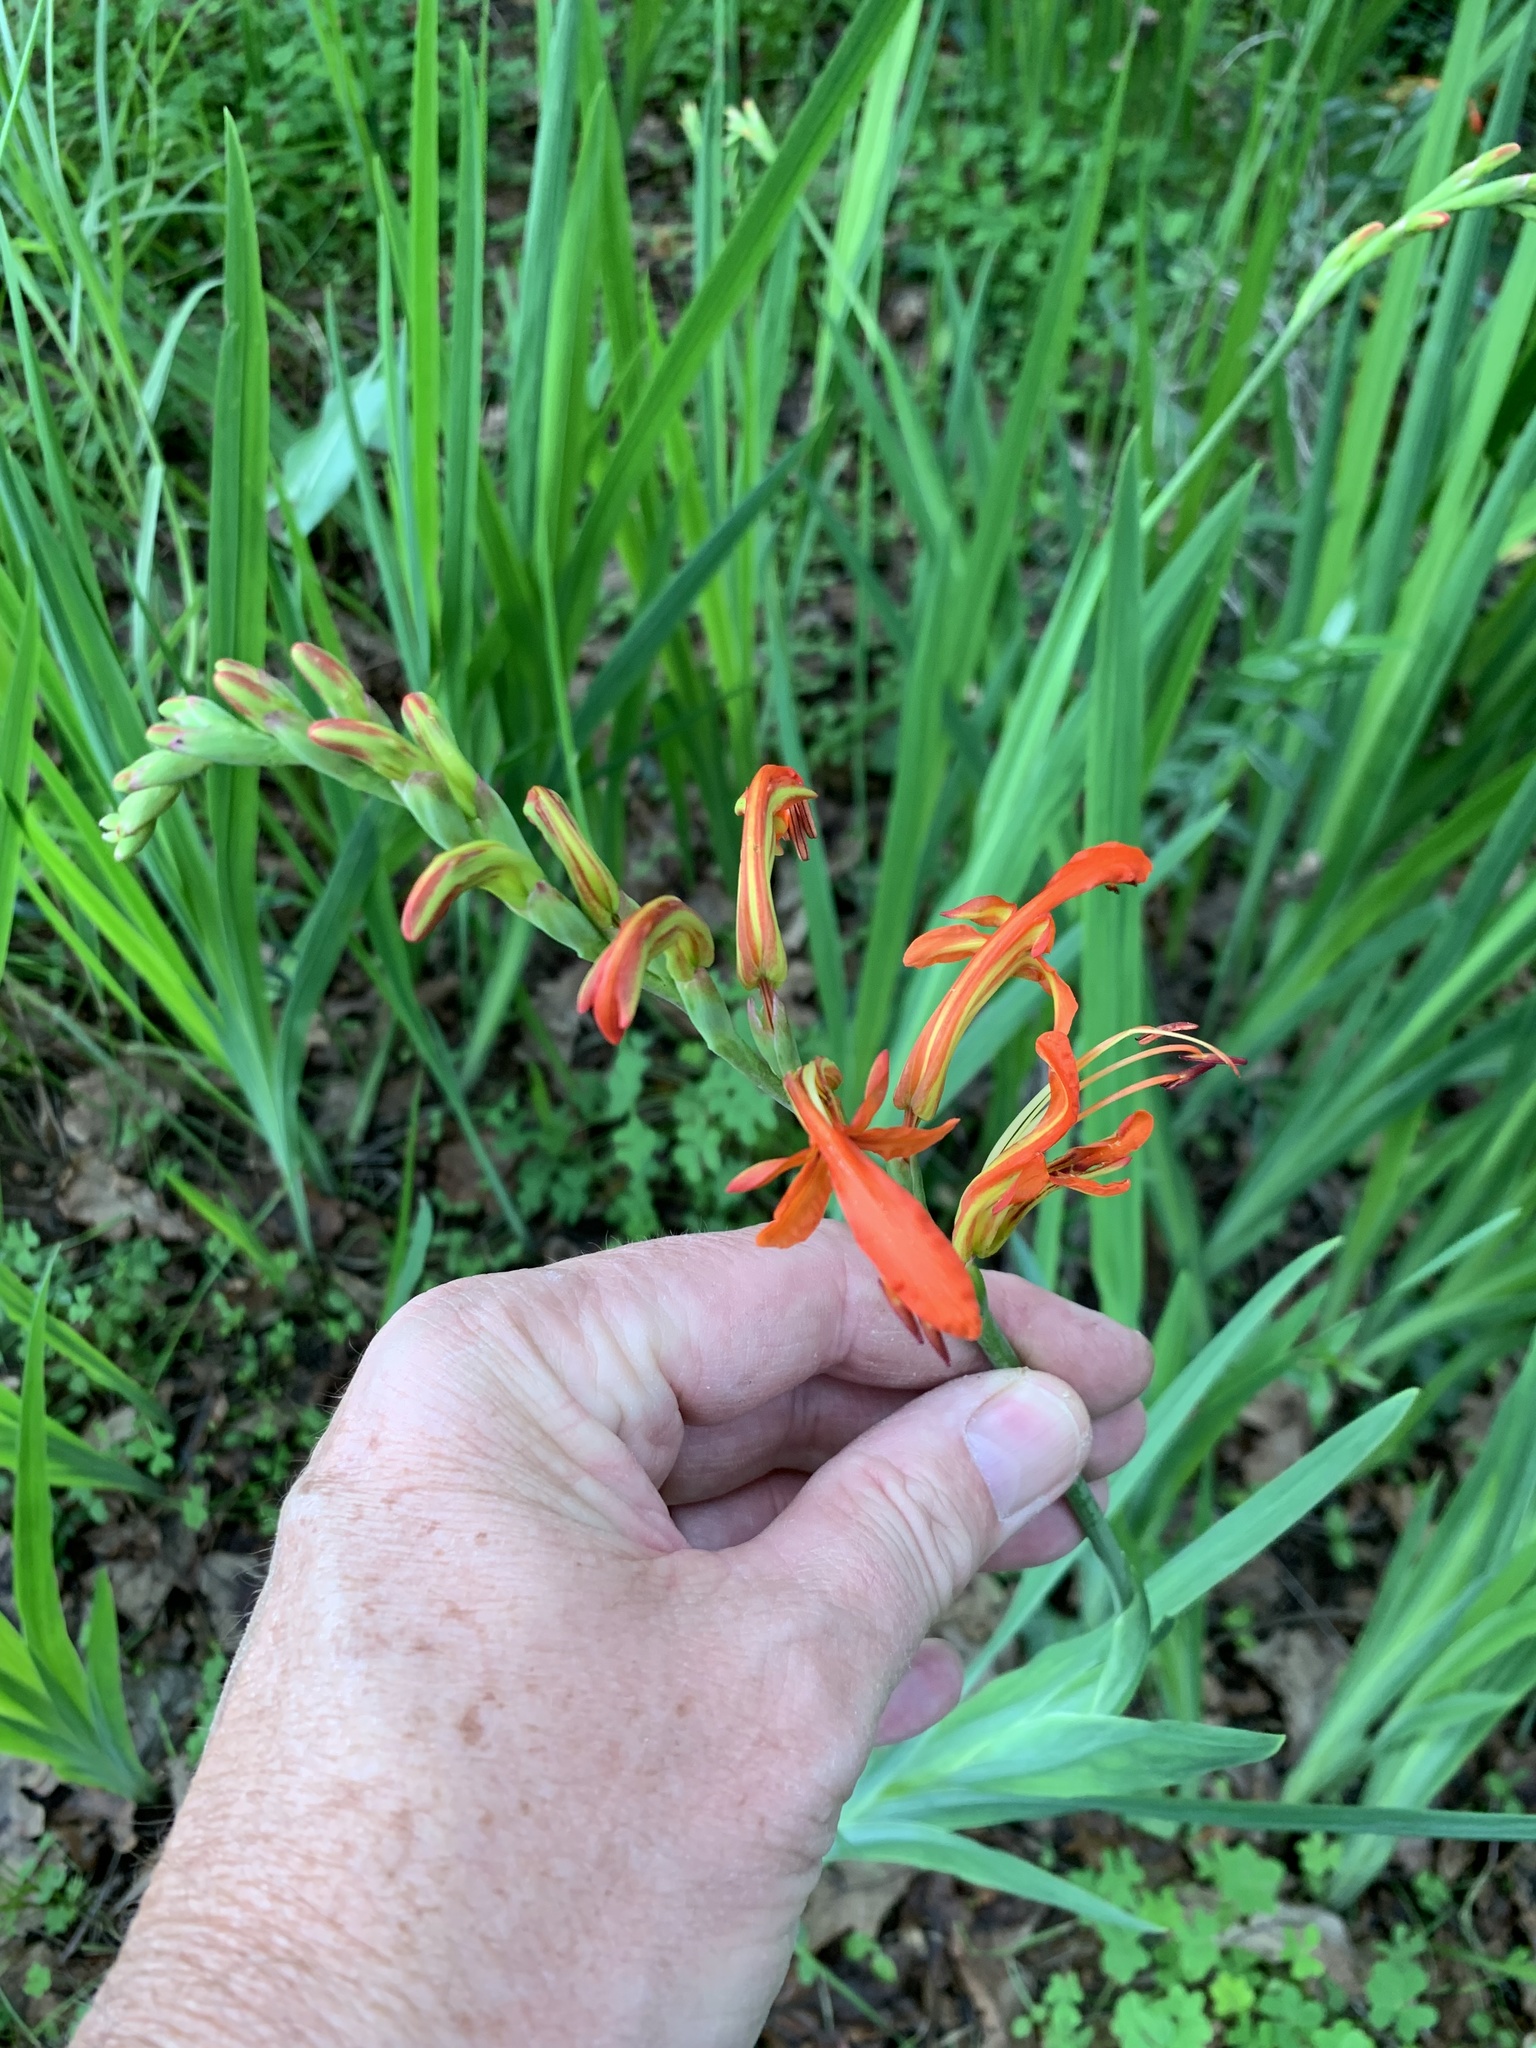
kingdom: Plantae
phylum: Tracheophyta
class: Liliopsida
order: Asparagales
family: Iridaceae
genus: Chasmanthe
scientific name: Chasmanthe aethiopica
